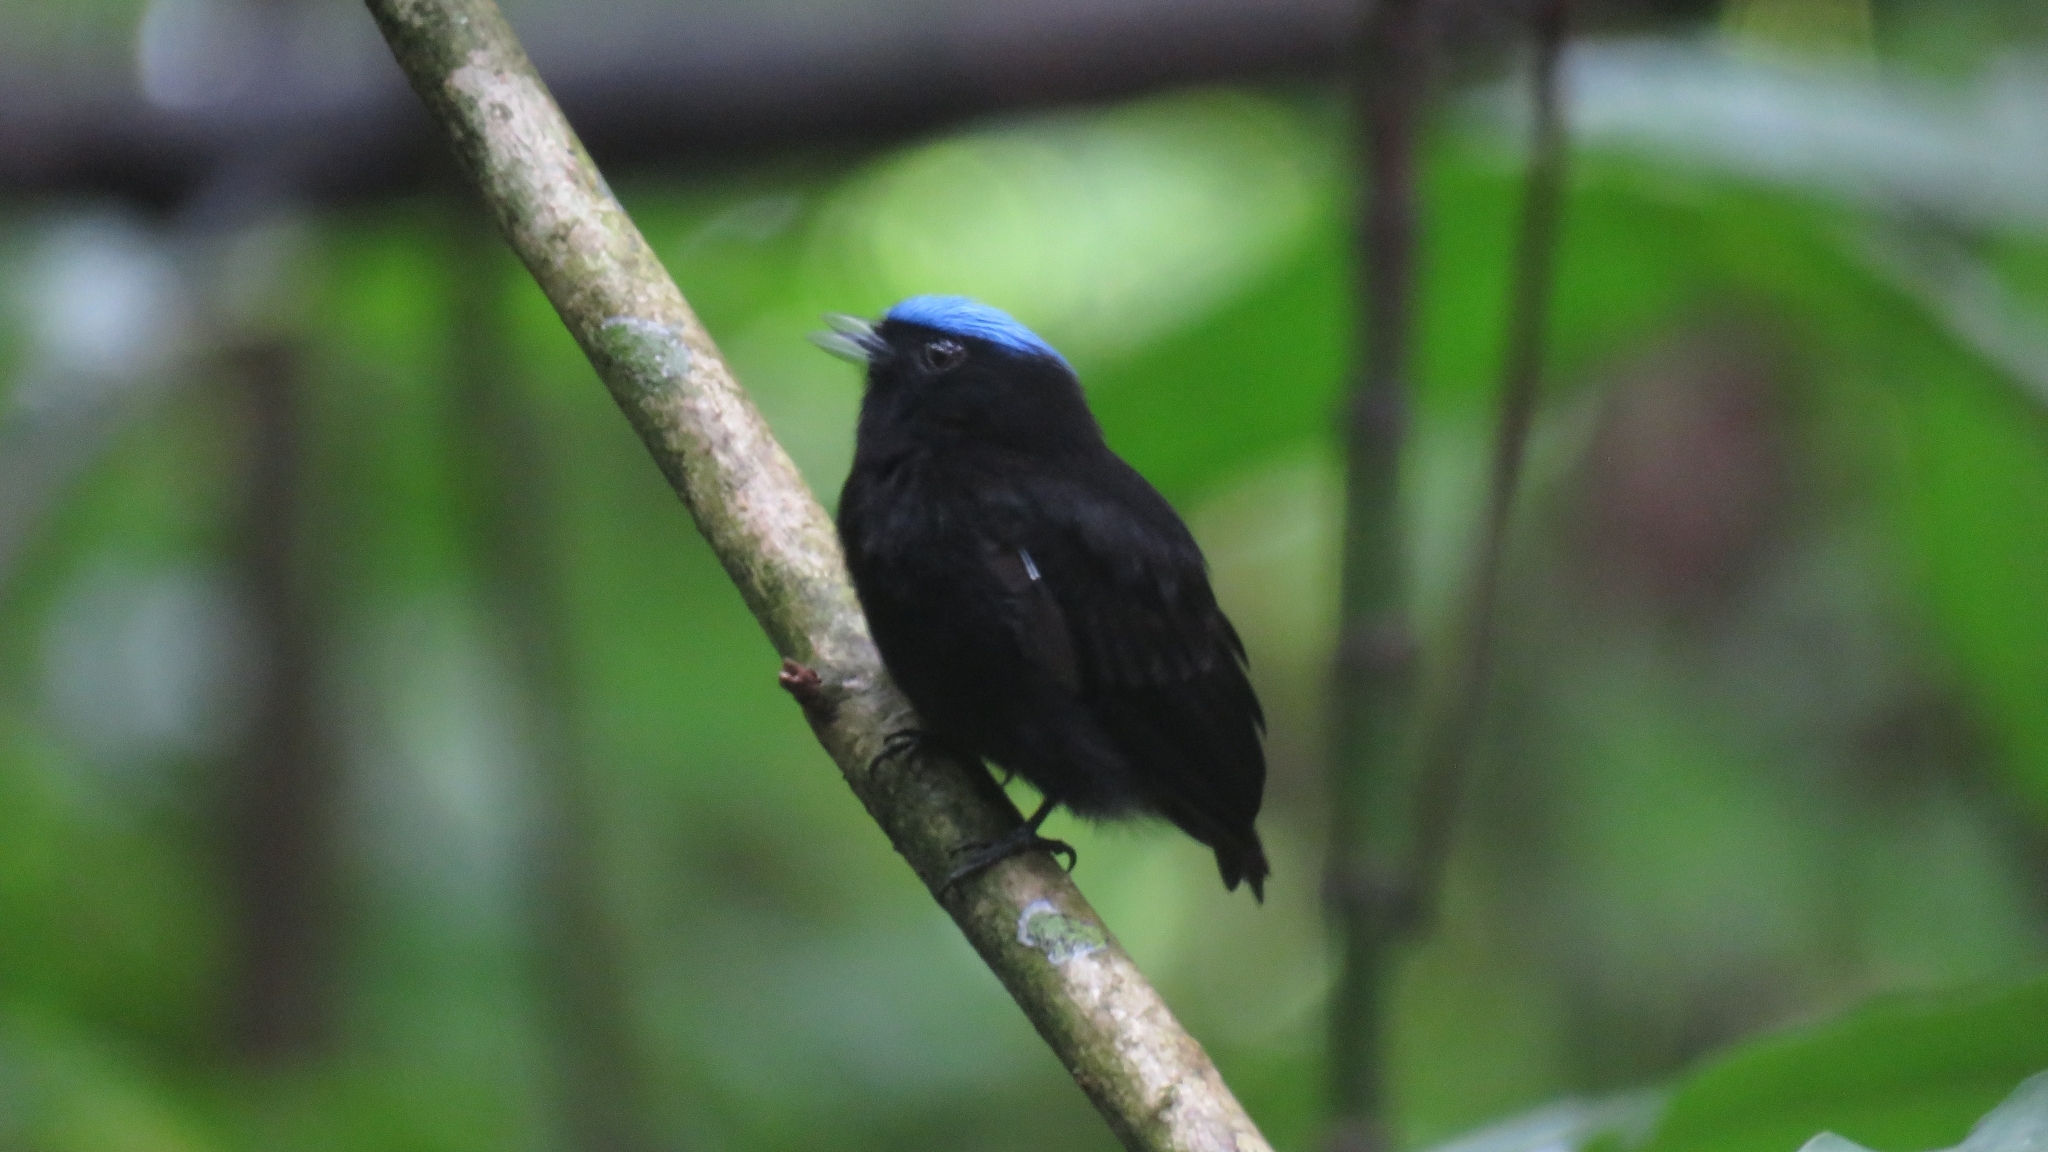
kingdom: Animalia
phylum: Chordata
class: Aves
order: Passeriformes
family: Pipridae
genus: Lepidothrix
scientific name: Lepidothrix coronata
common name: Blue-crowned manakin
